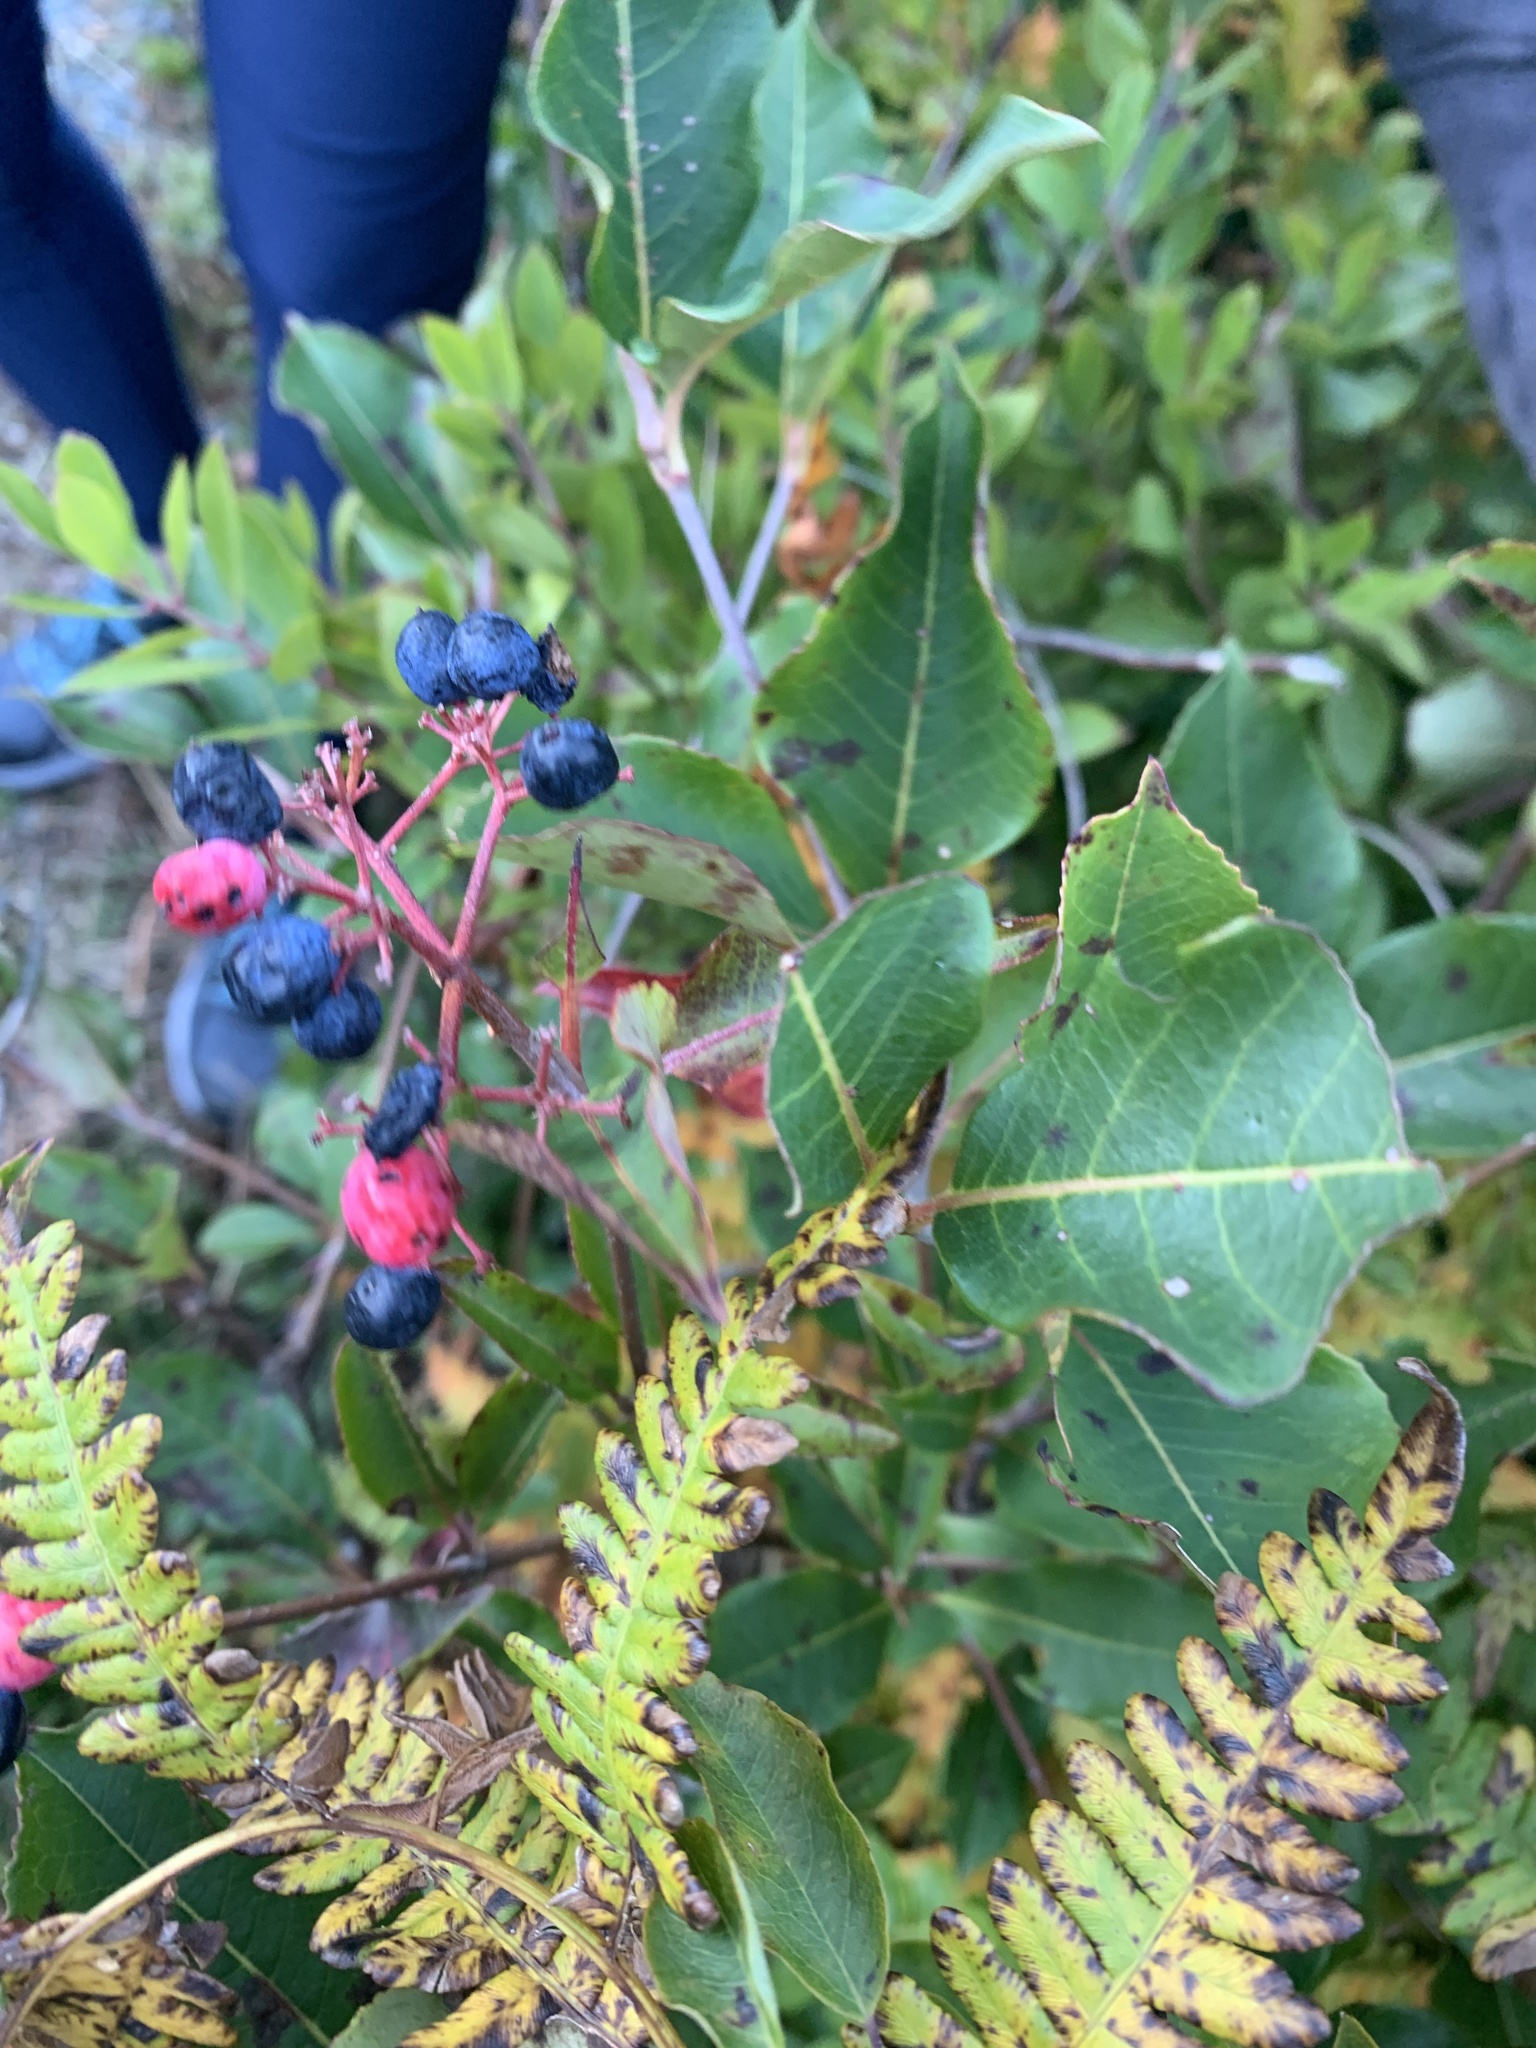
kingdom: Plantae
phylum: Tracheophyta
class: Magnoliopsida
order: Dipsacales
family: Viburnaceae
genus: Viburnum
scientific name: Viburnum cassinoides
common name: Swamp haw
